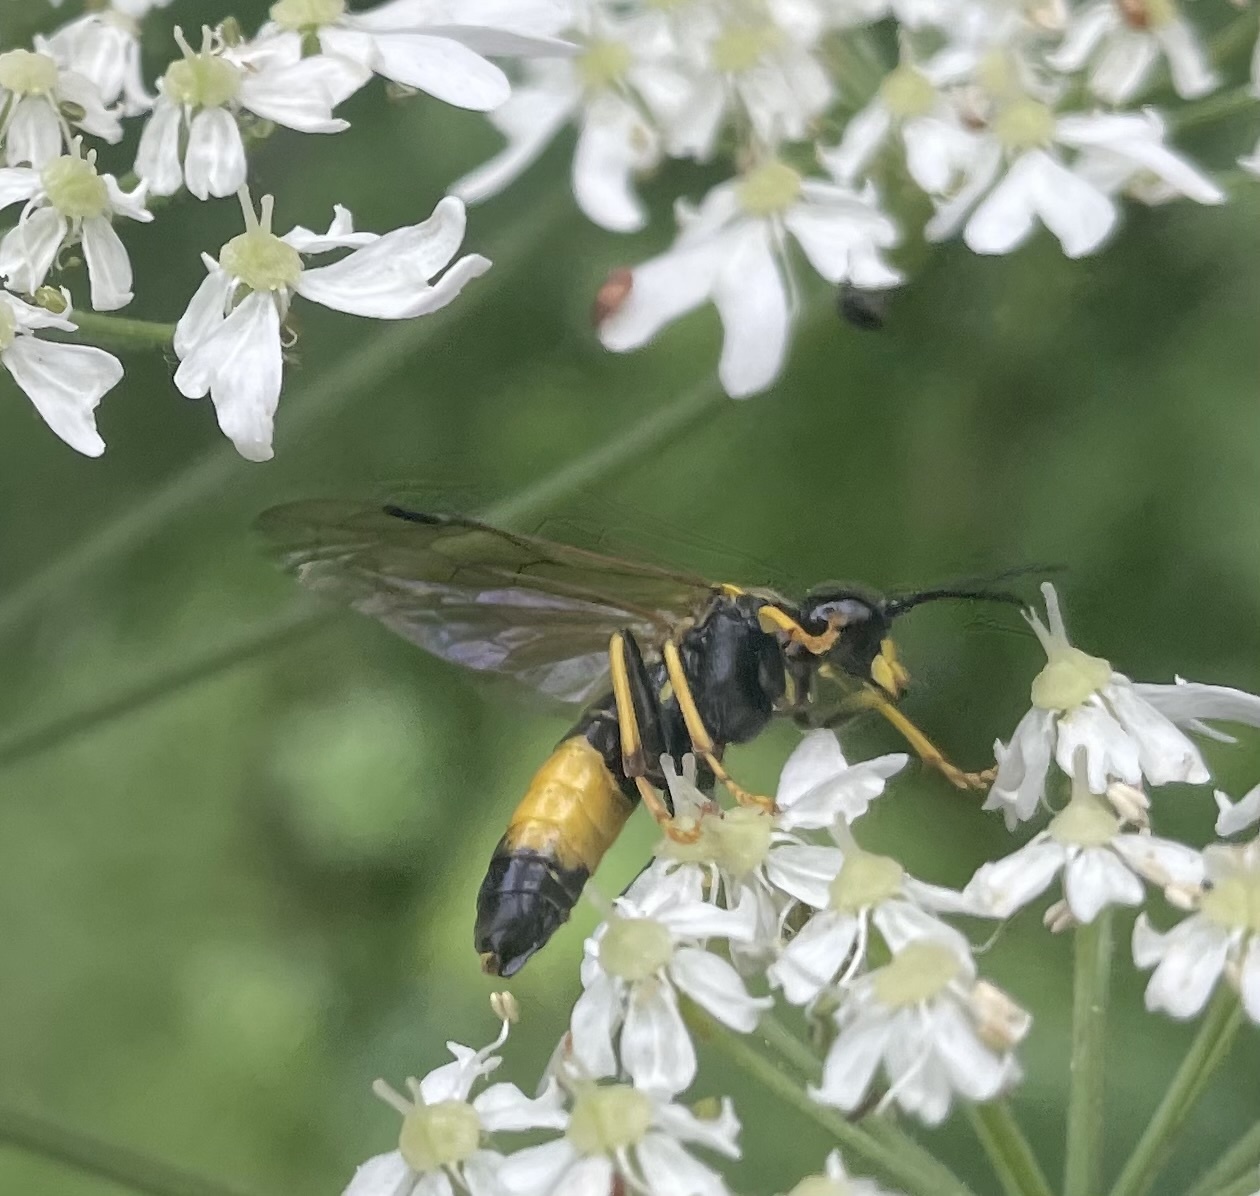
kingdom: Animalia
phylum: Arthropoda
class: Insecta
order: Hymenoptera
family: Tenthredinidae
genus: Tenthredo
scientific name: Tenthredo maculata
